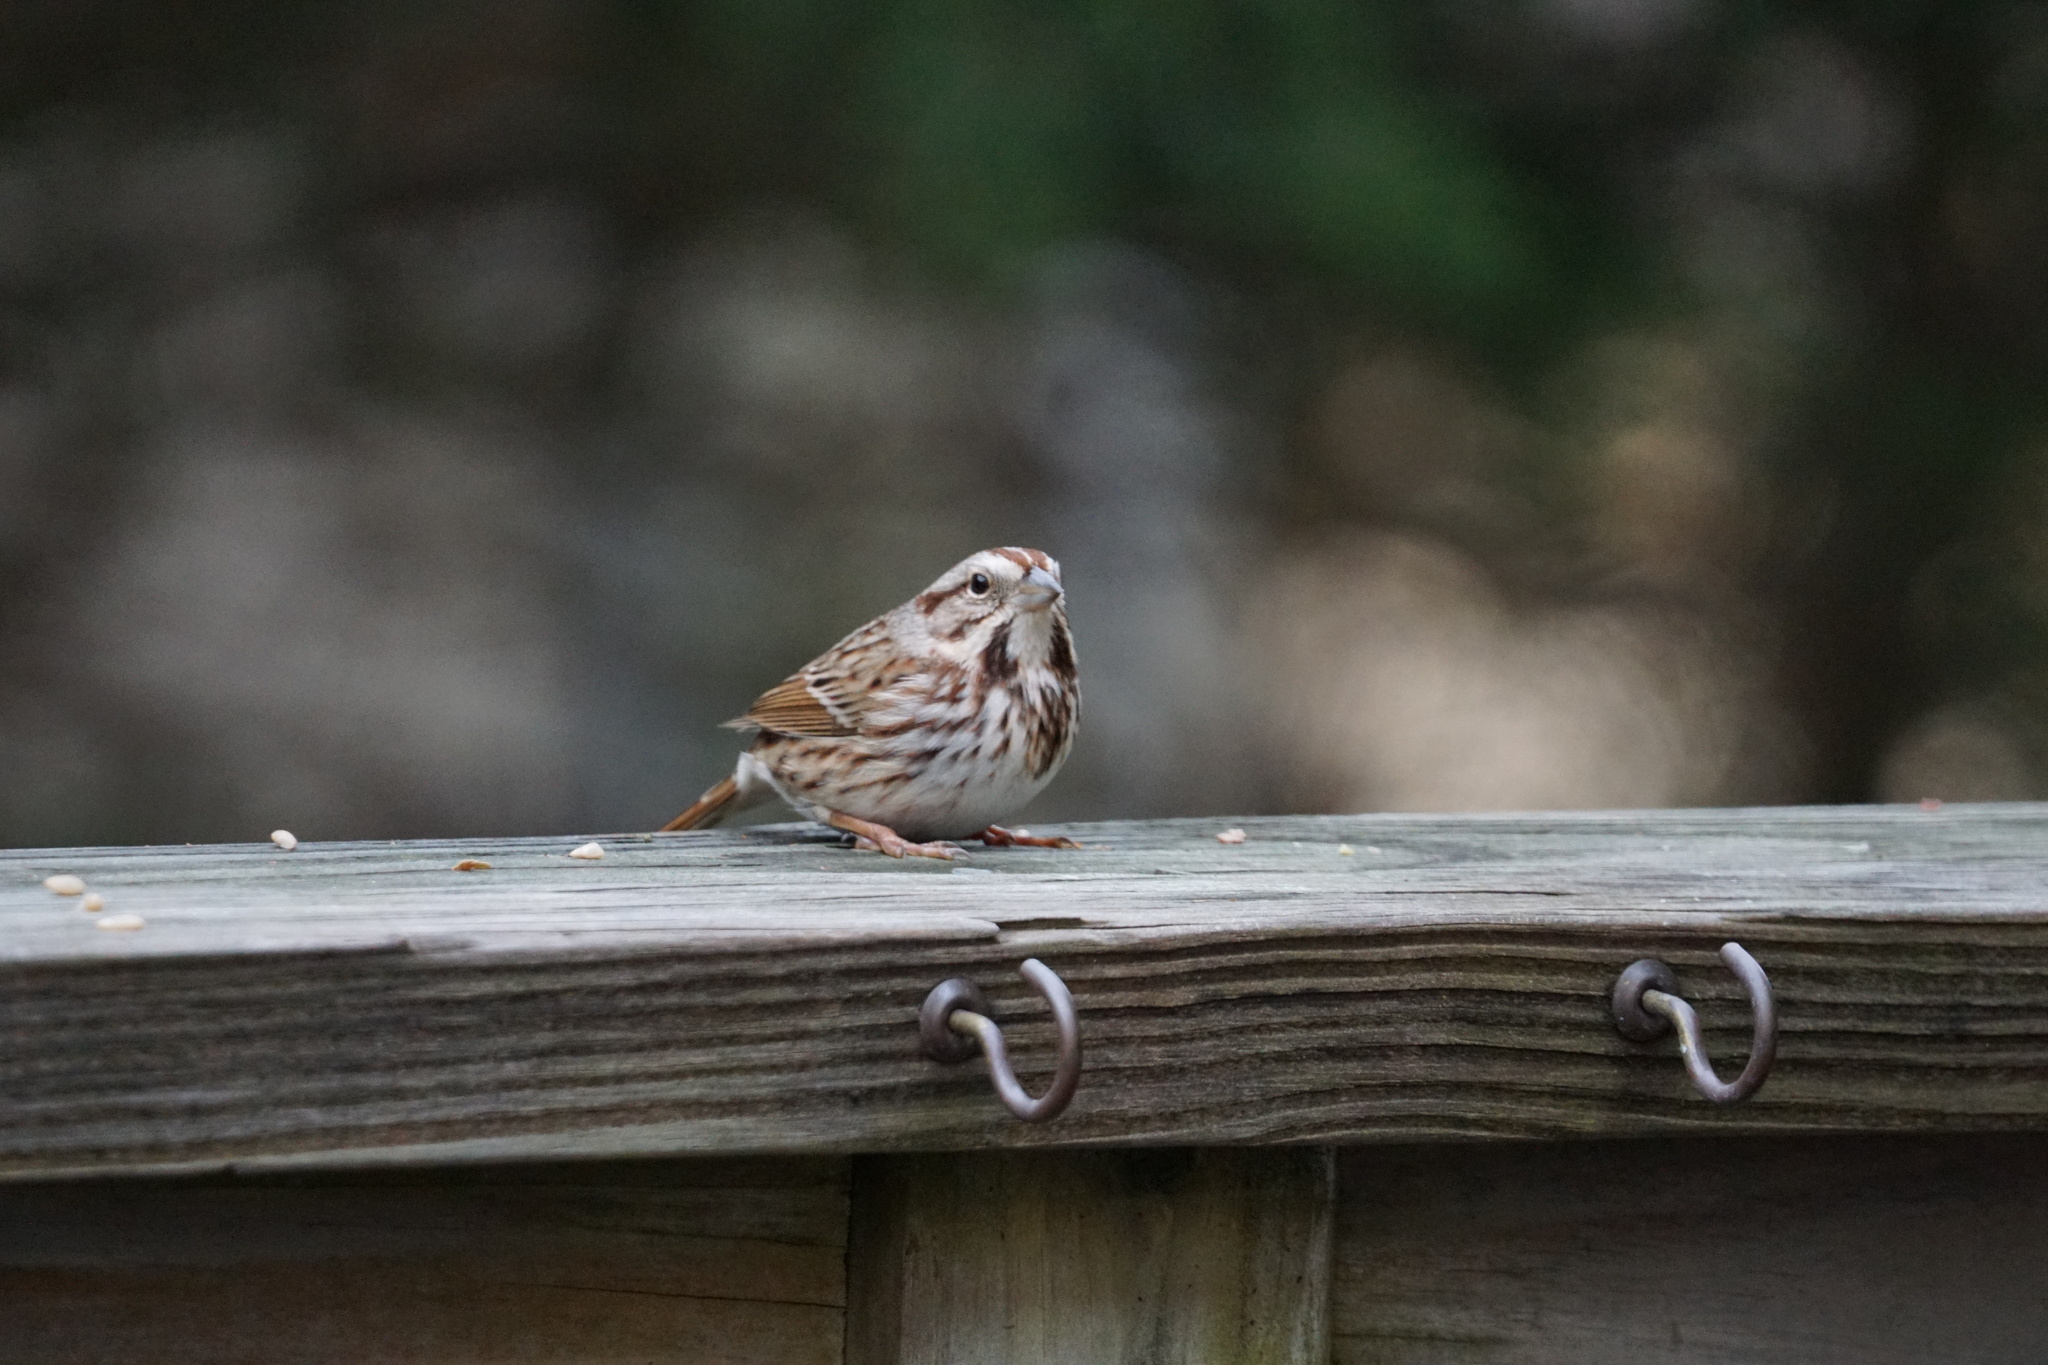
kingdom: Animalia
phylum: Chordata
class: Aves
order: Passeriformes
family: Passerellidae
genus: Melospiza
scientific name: Melospiza melodia
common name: Song sparrow
